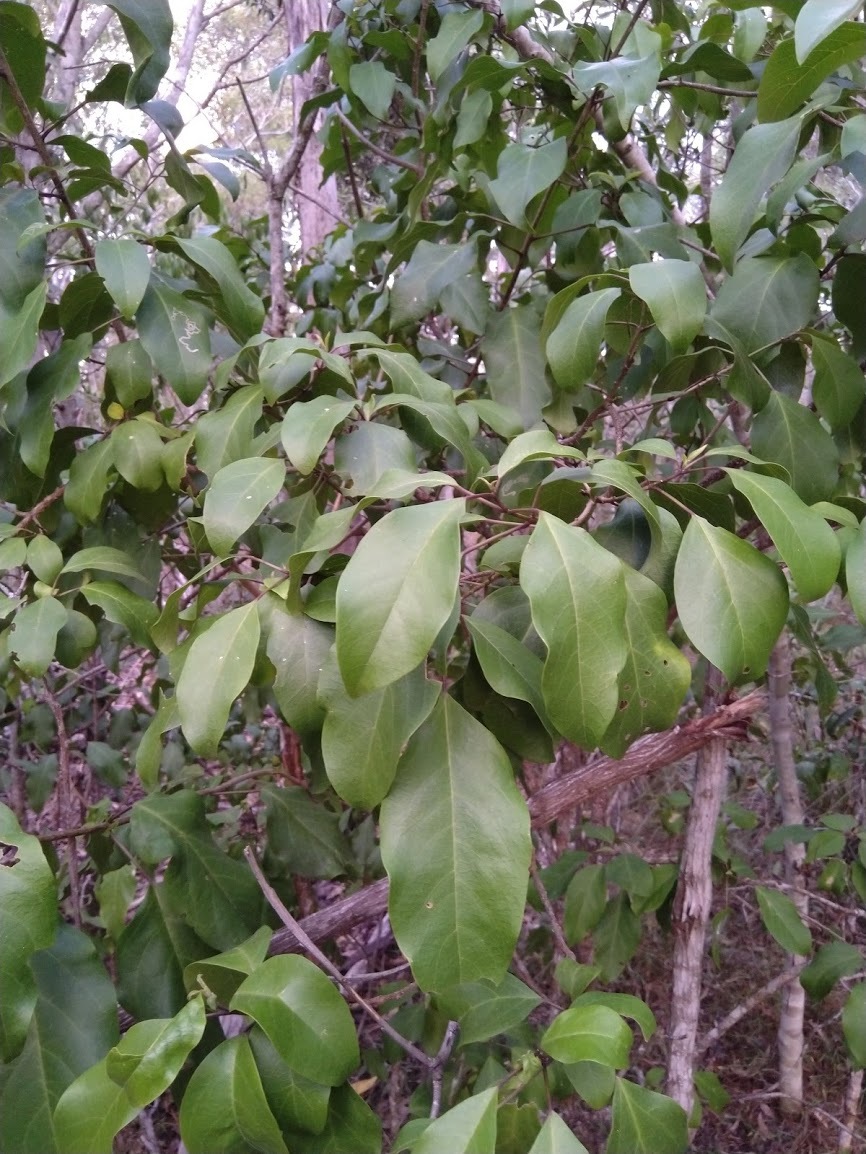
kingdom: Plantae
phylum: Tracheophyta
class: Magnoliopsida
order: Lamiales
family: Lamiaceae
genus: Clerodendrum
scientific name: Clerodendrum floribundum
